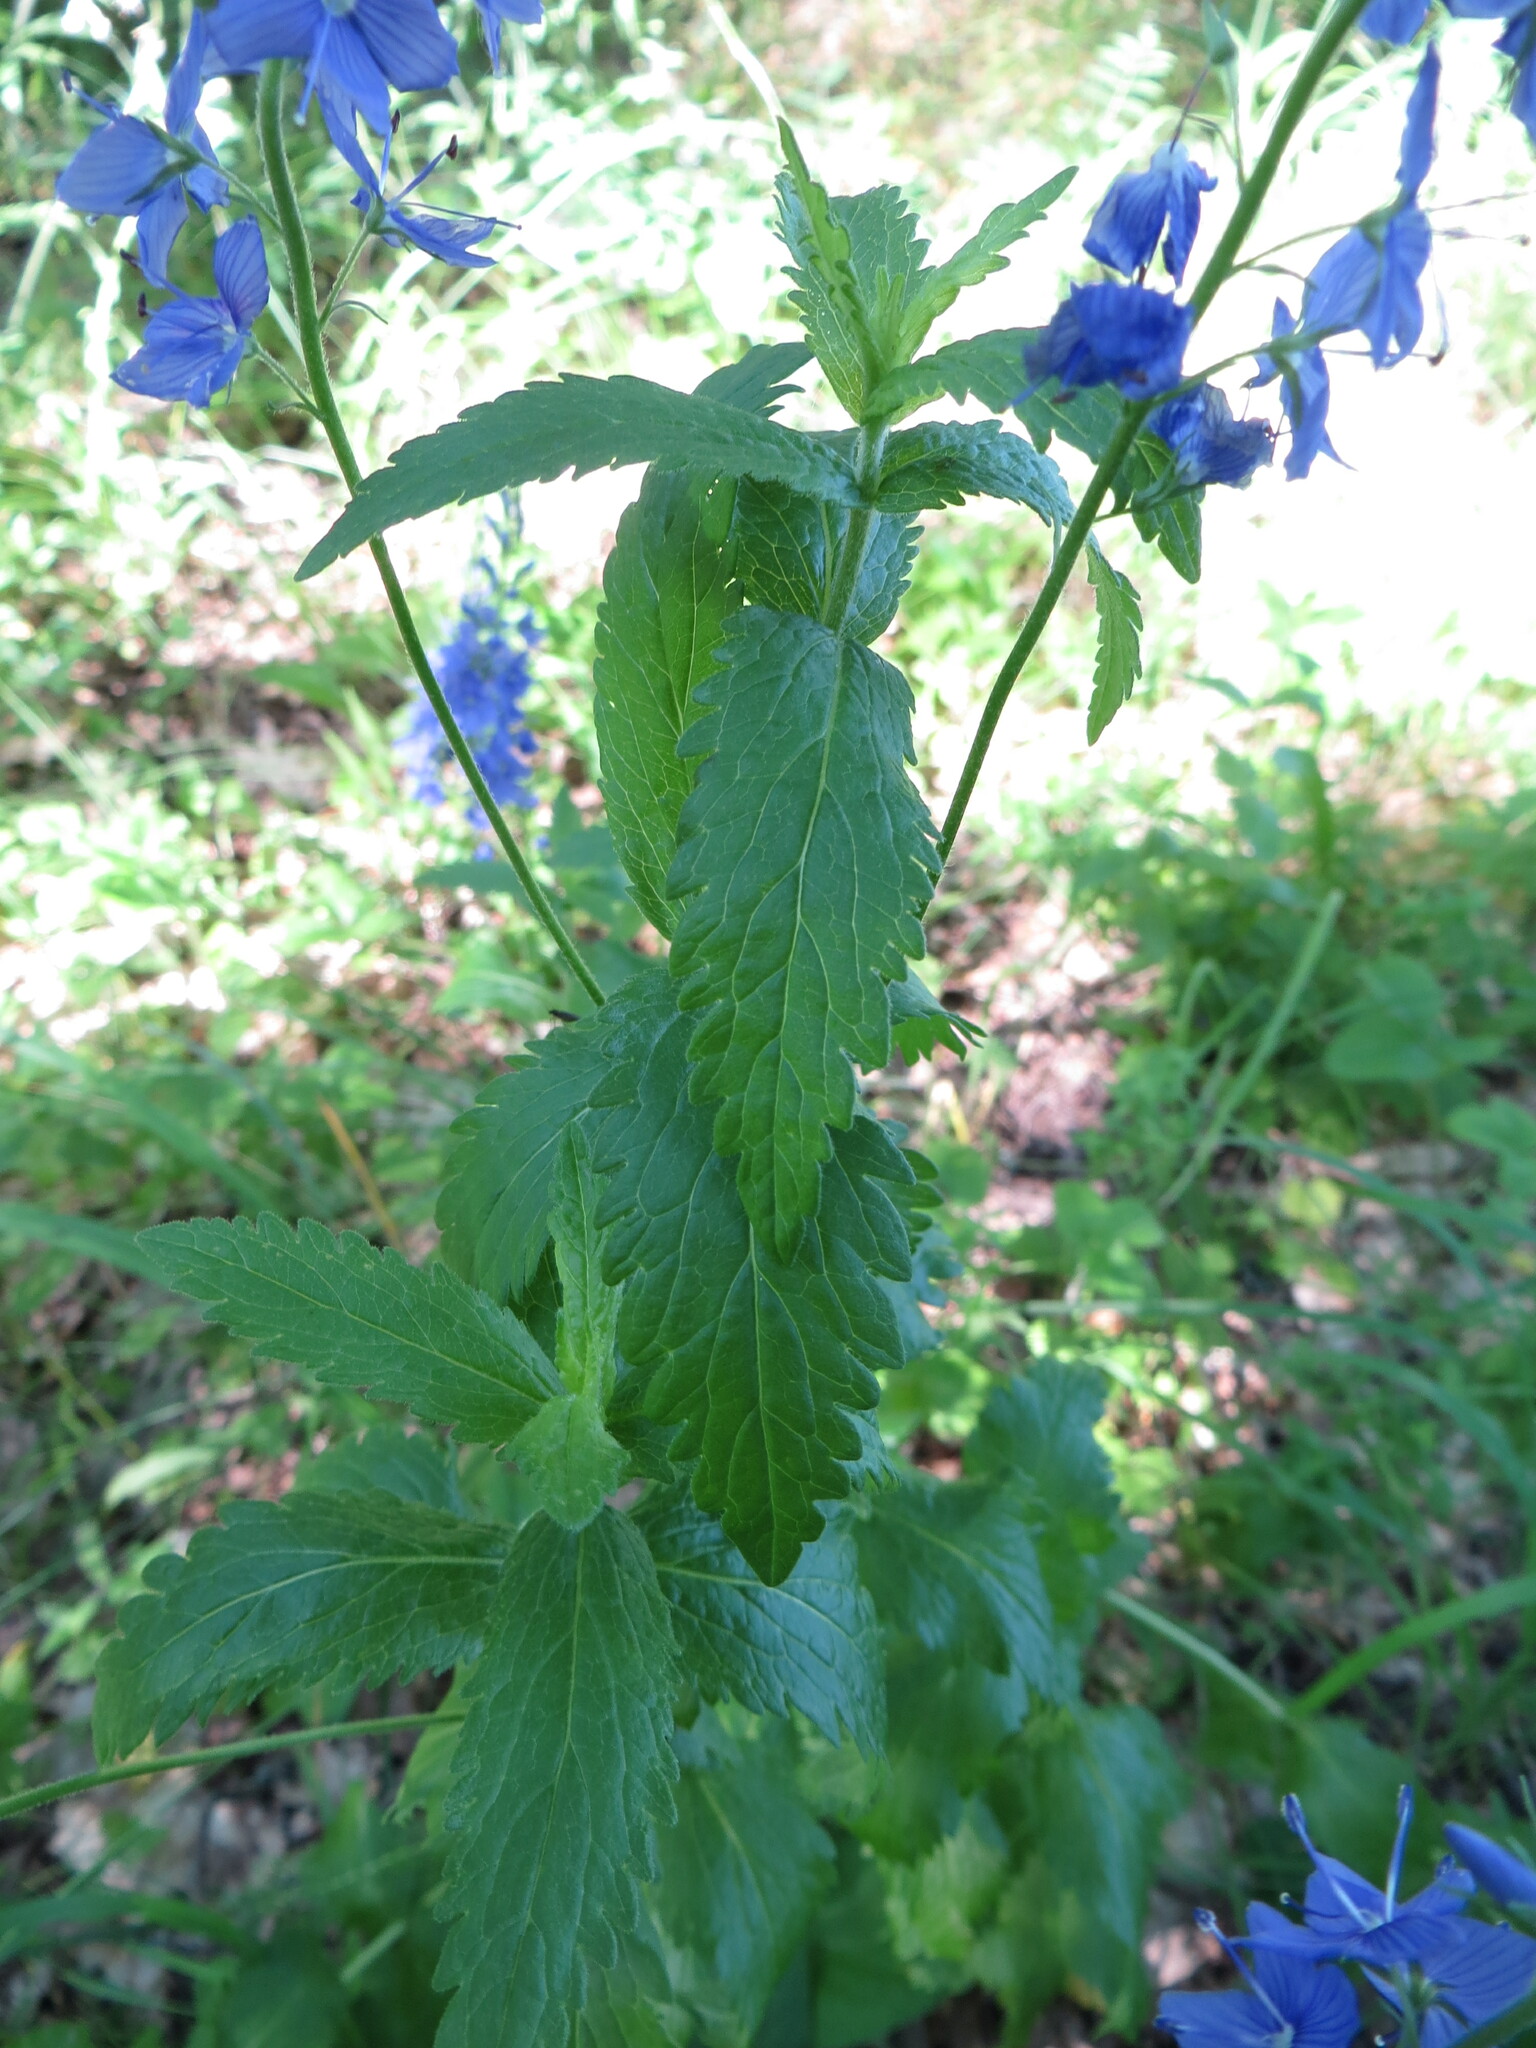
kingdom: Plantae
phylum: Tracheophyta
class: Magnoliopsida
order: Lamiales
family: Plantaginaceae
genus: Veronica
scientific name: Veronica teucrium
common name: Large speedwell
